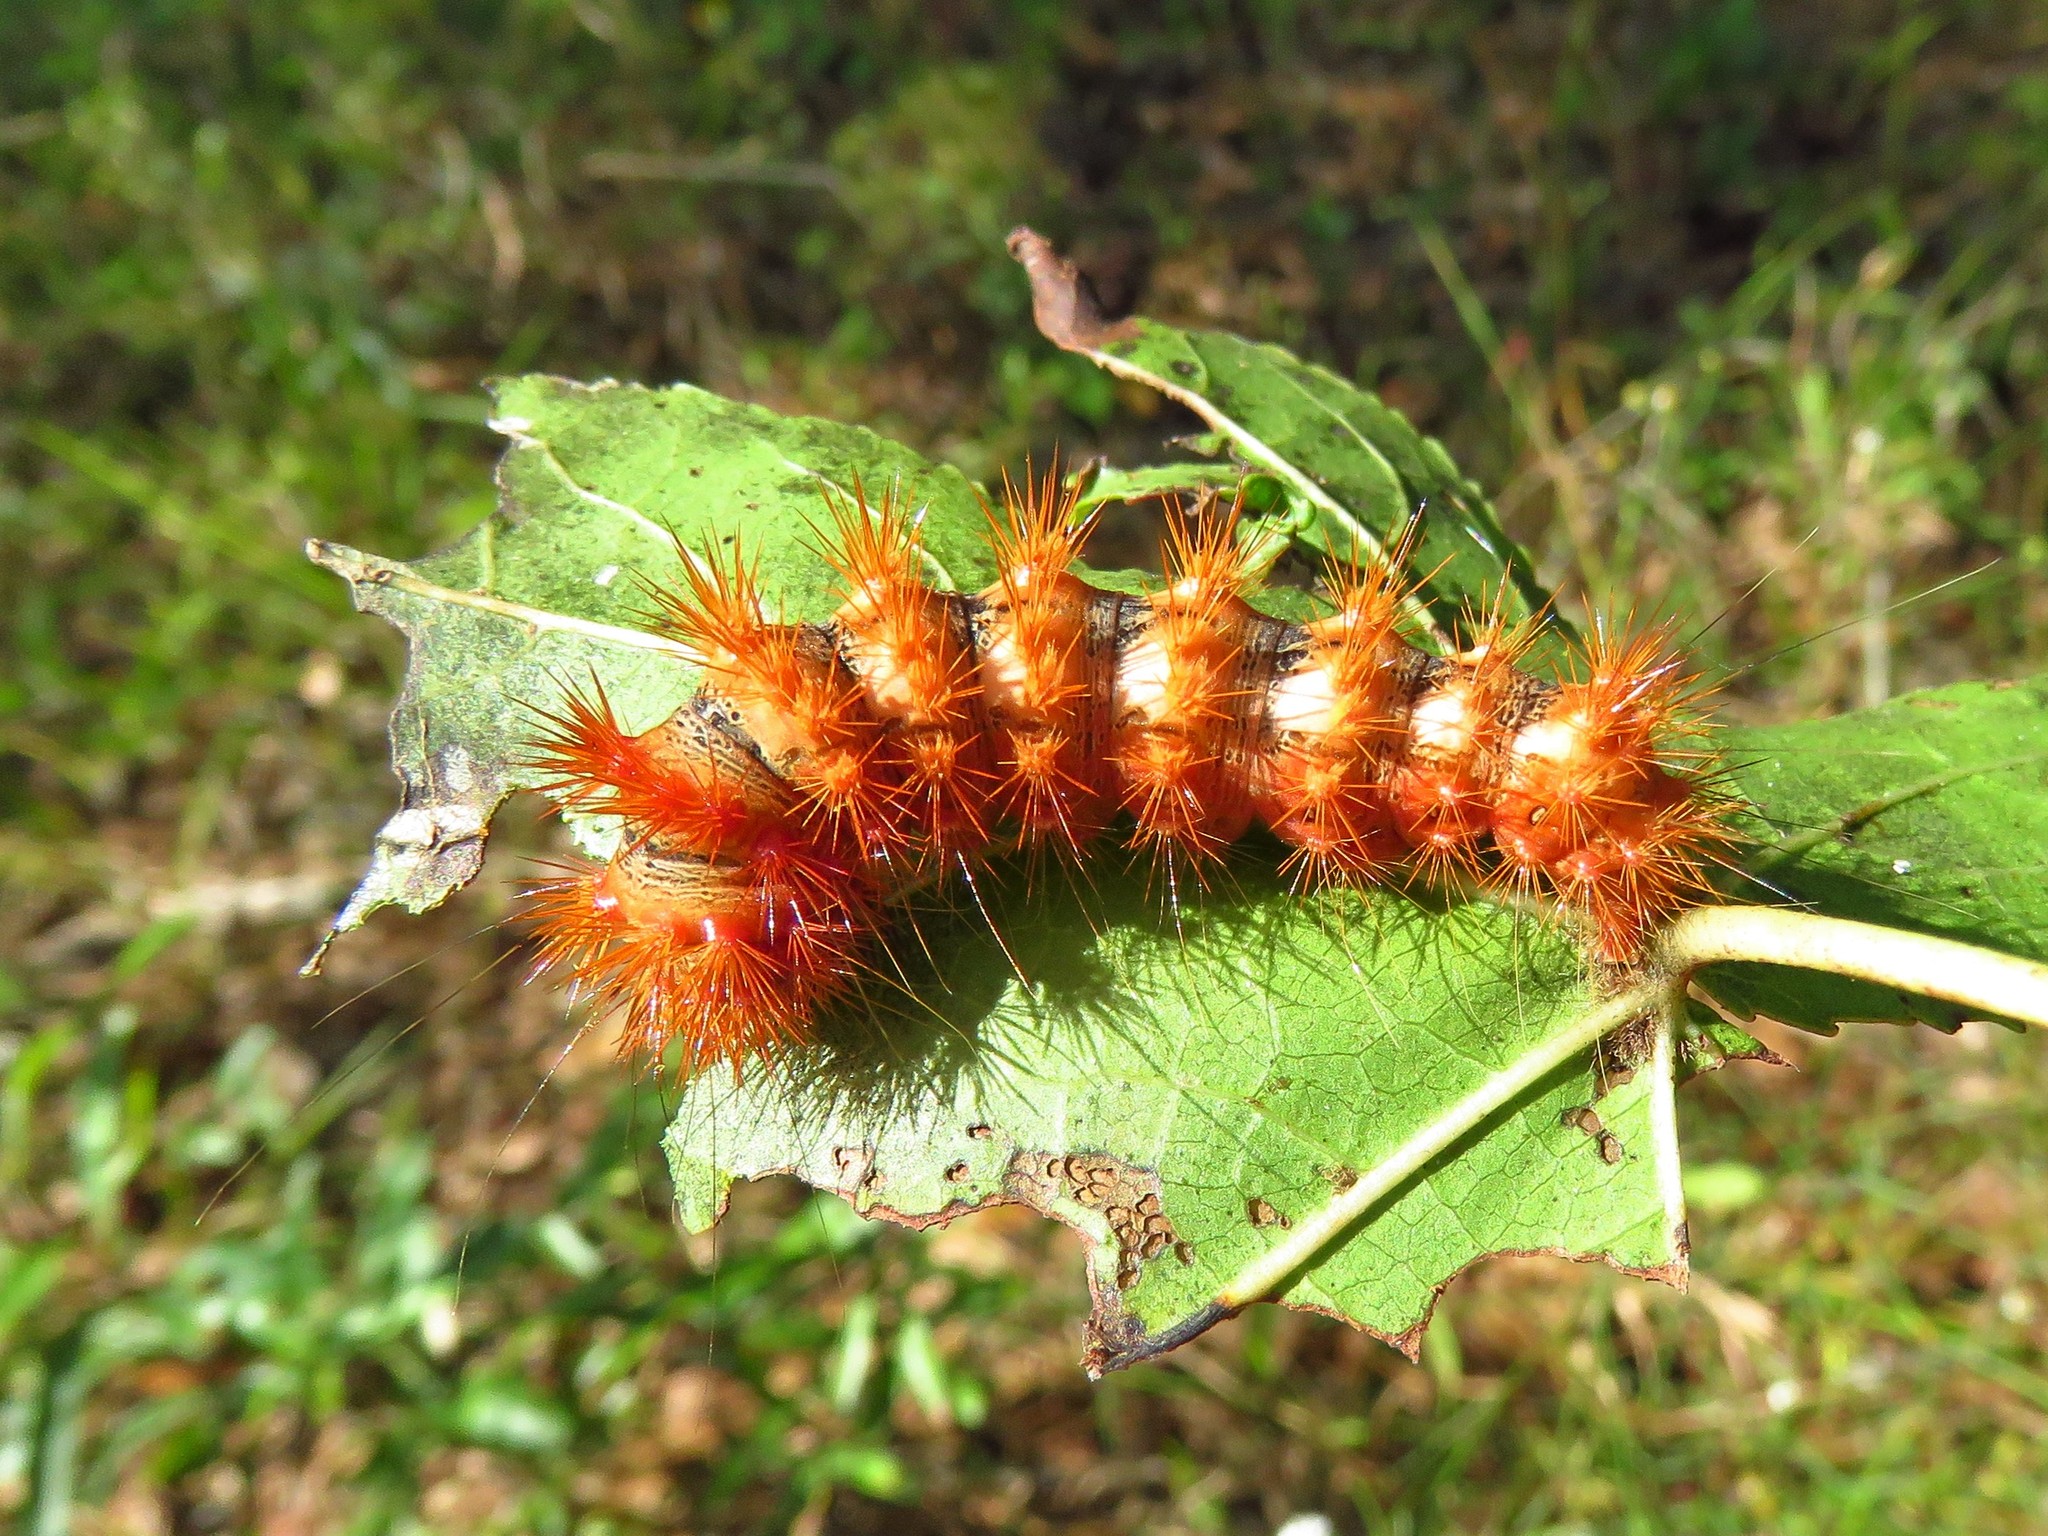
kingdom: Animalia
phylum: Arthropoda
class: Insecta
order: Lepidoptera
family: Noctuidae
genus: Acronicta
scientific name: Acronicta longa
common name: Long-winged dagger
